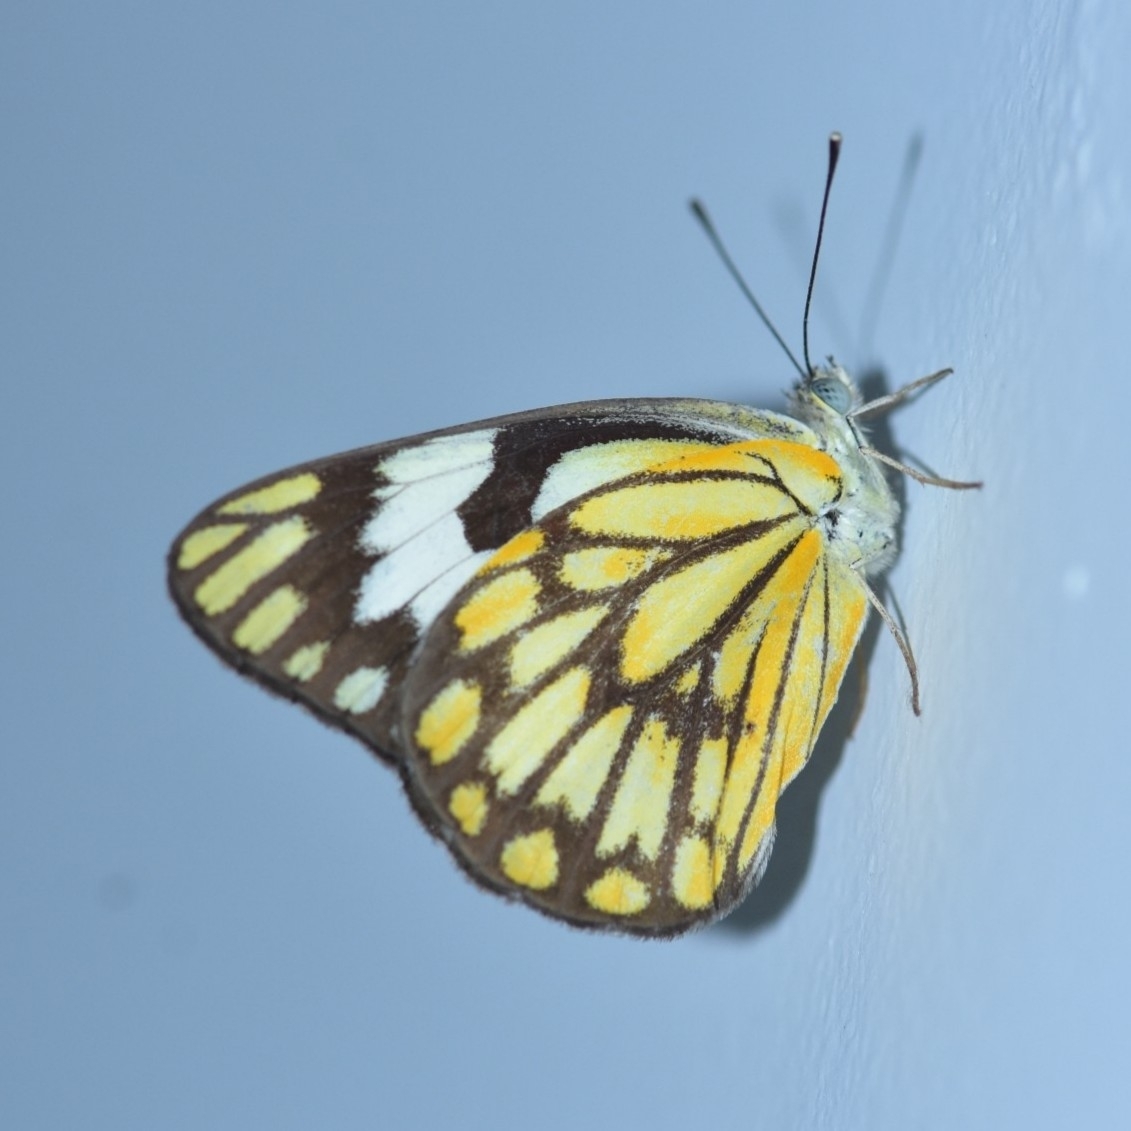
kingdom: Animalia
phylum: Arthropoda
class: Insecta
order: Lepidoptera
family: Pieridae
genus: Belenois
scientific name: Belenois aurota
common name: Brown-veined white
